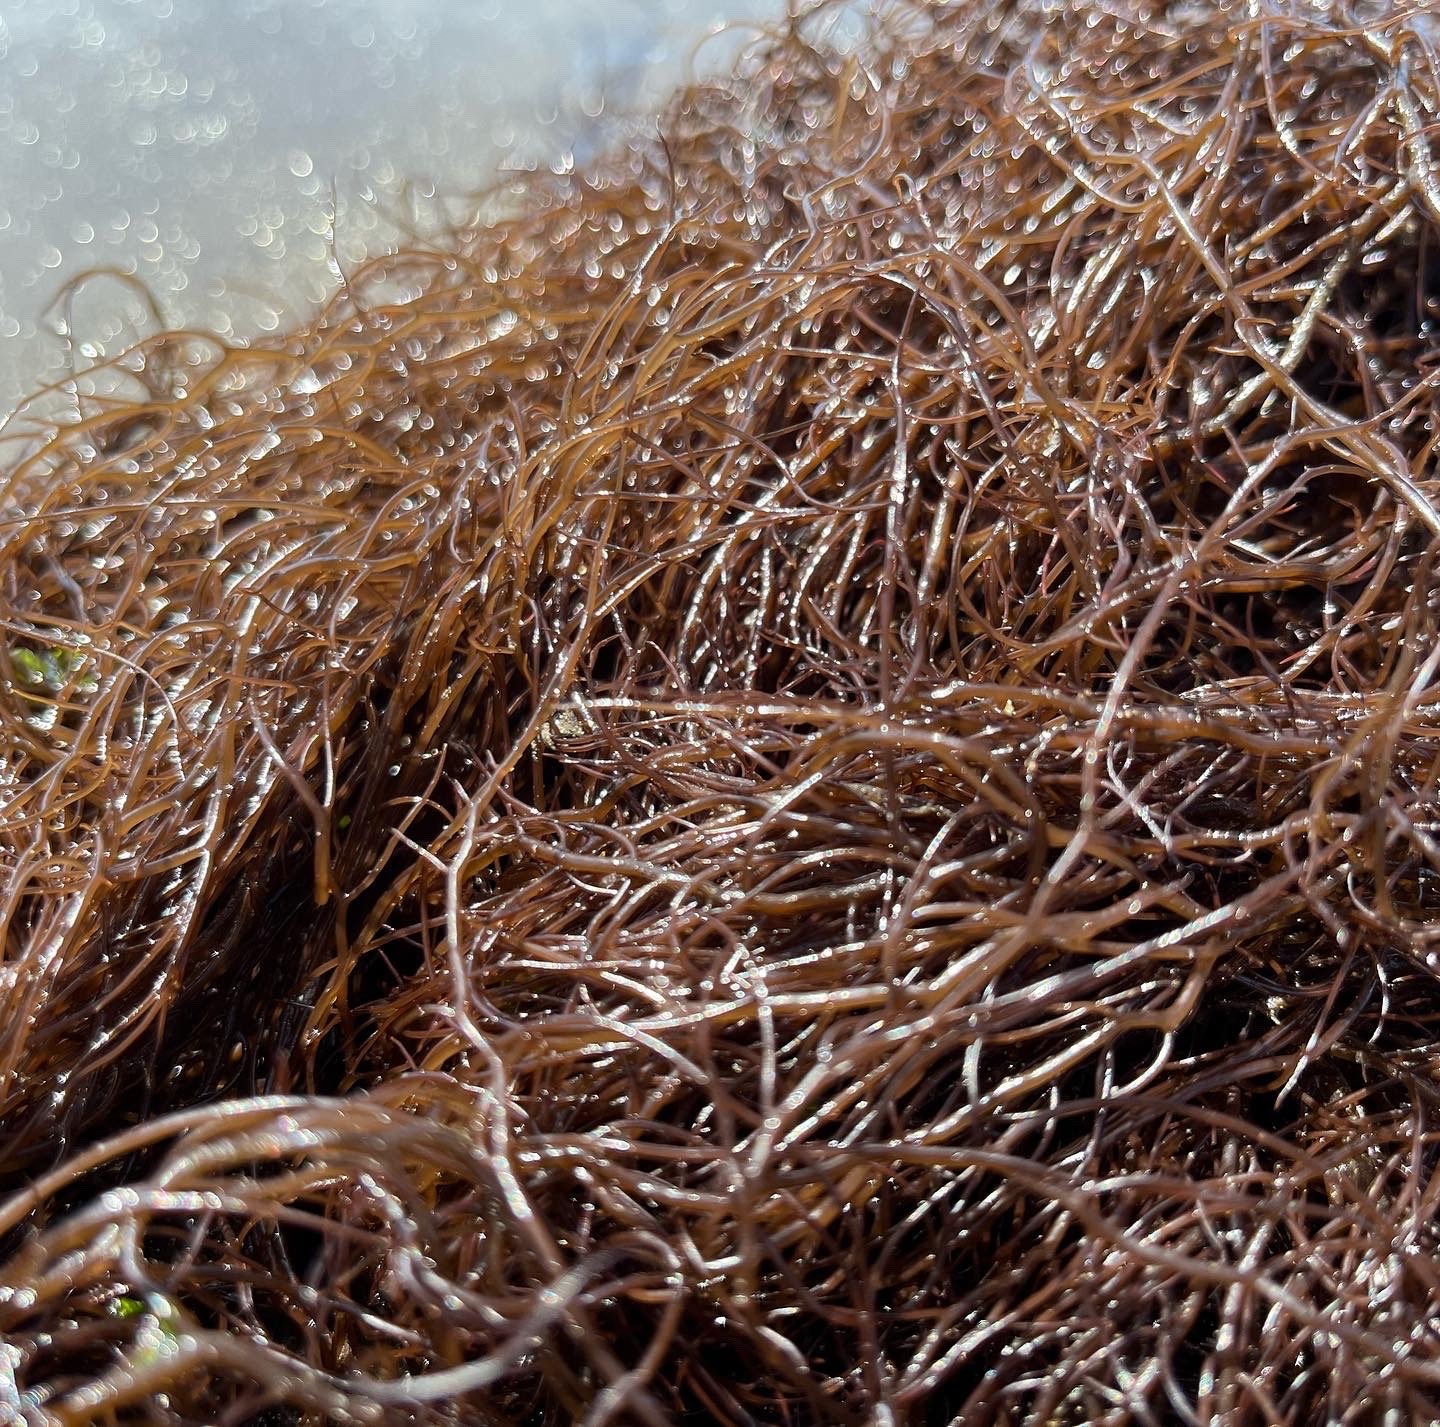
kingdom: Plantae
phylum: Rhodophyta
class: Florideophyceae
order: Gracilariales
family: Gracilariaceae
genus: Gracilaria
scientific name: Gracilaria chilensis
